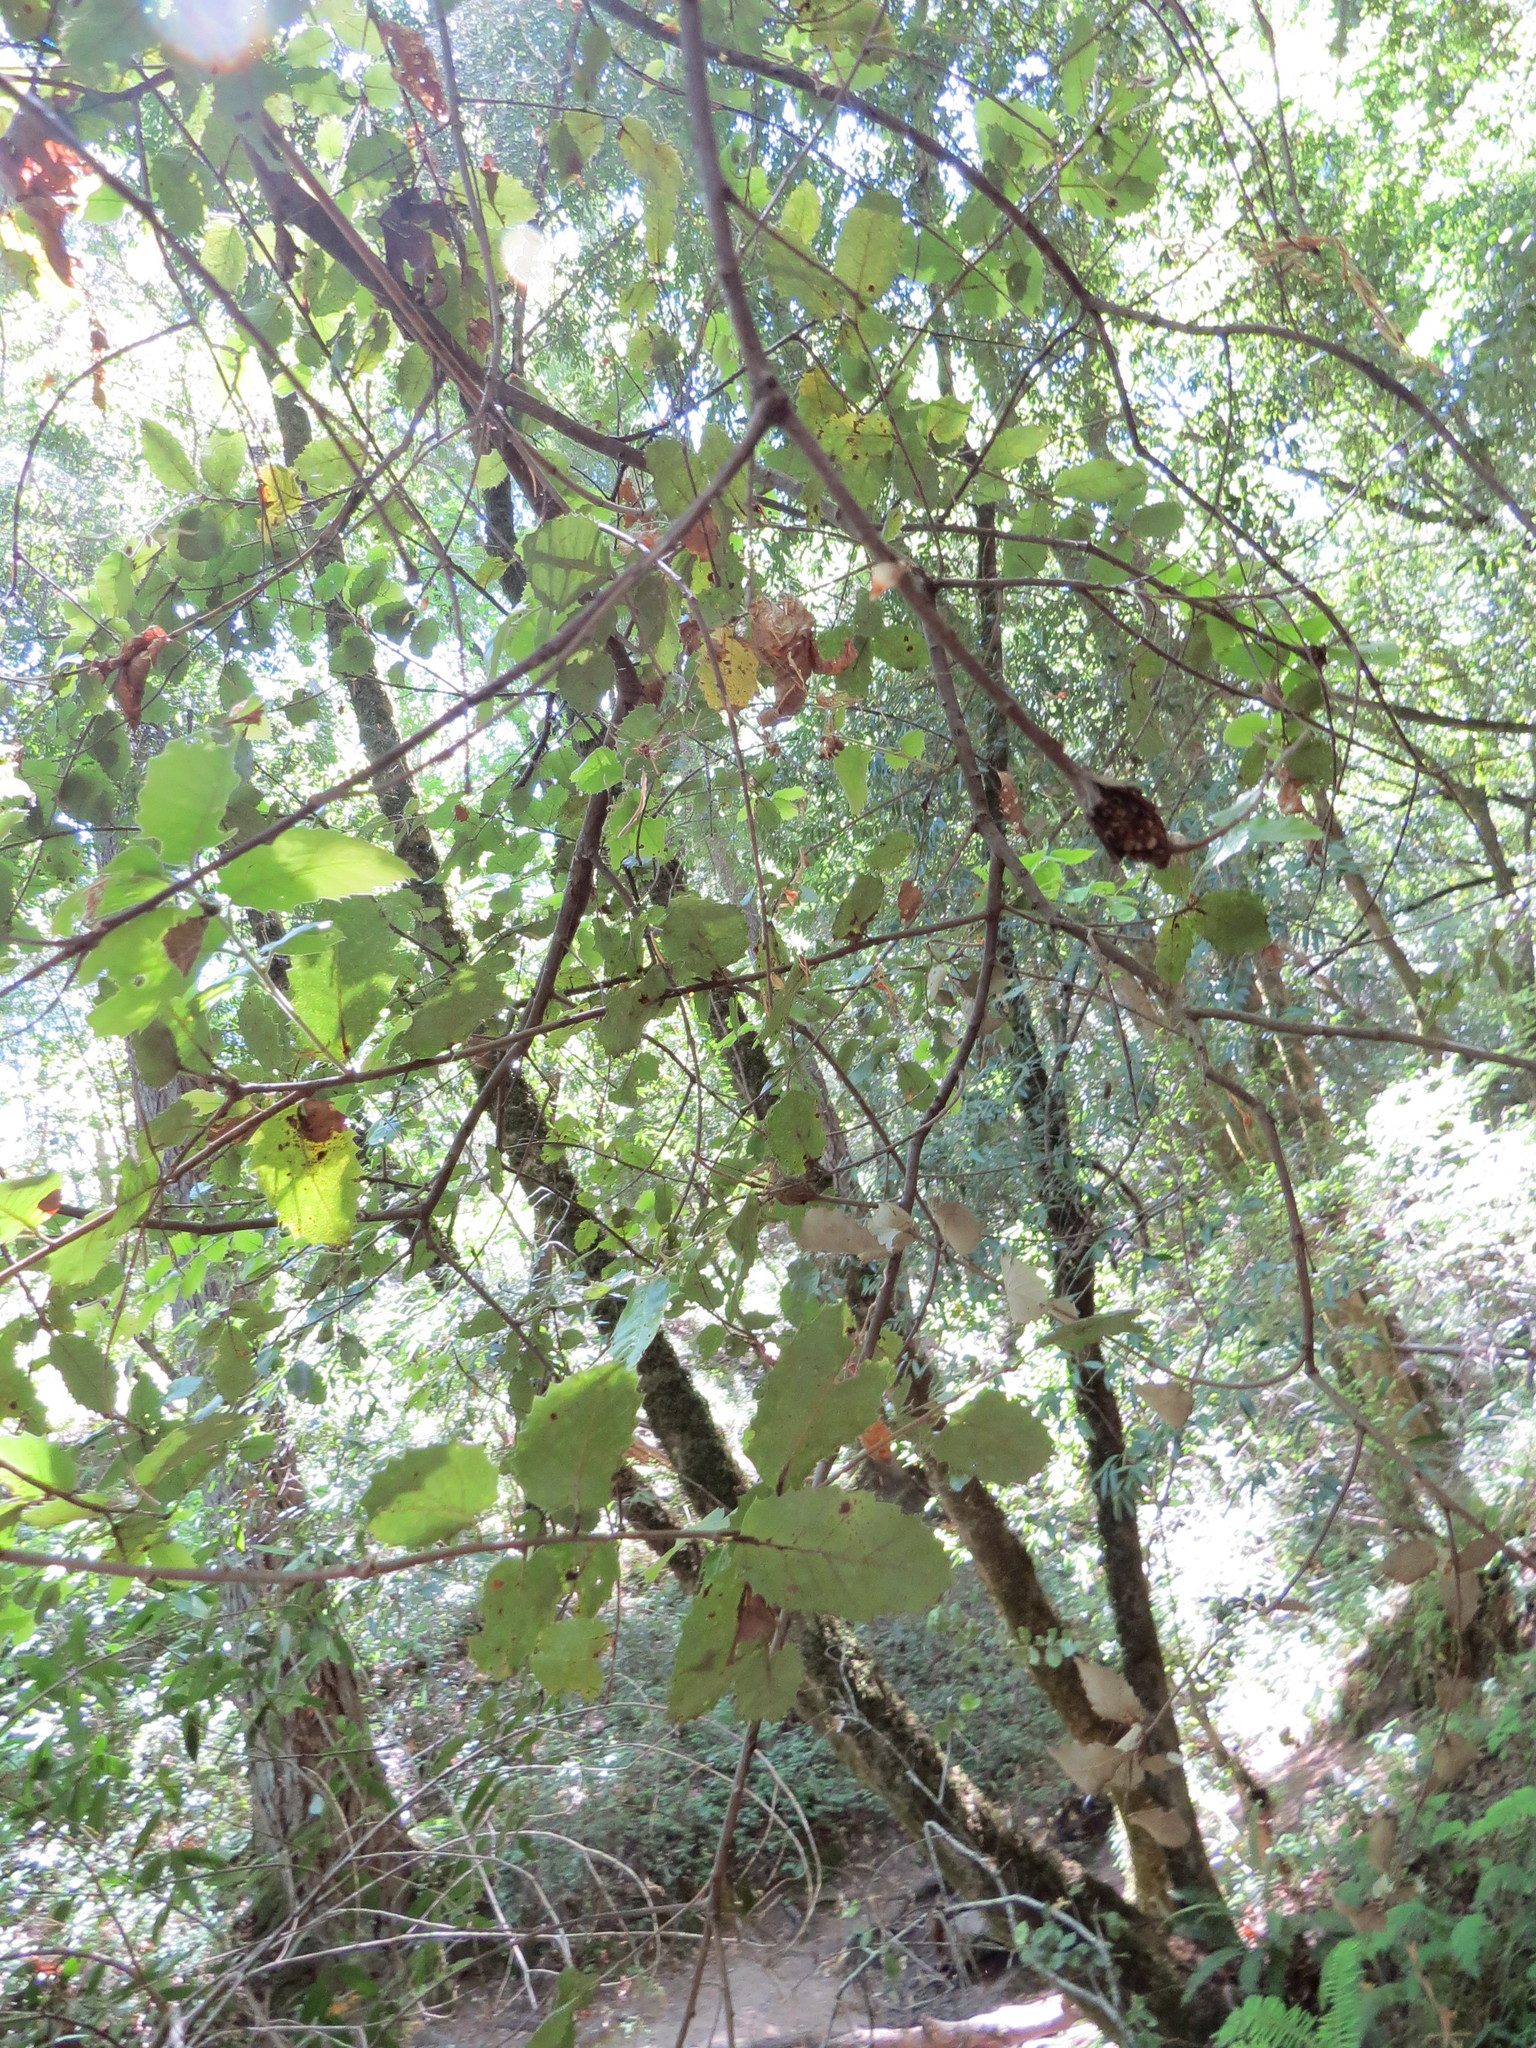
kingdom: Animalia
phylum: Arthropoda
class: Insecta
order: Hymenoptera
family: Cynipidae
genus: Dryocosmus
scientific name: Dryocosmus
